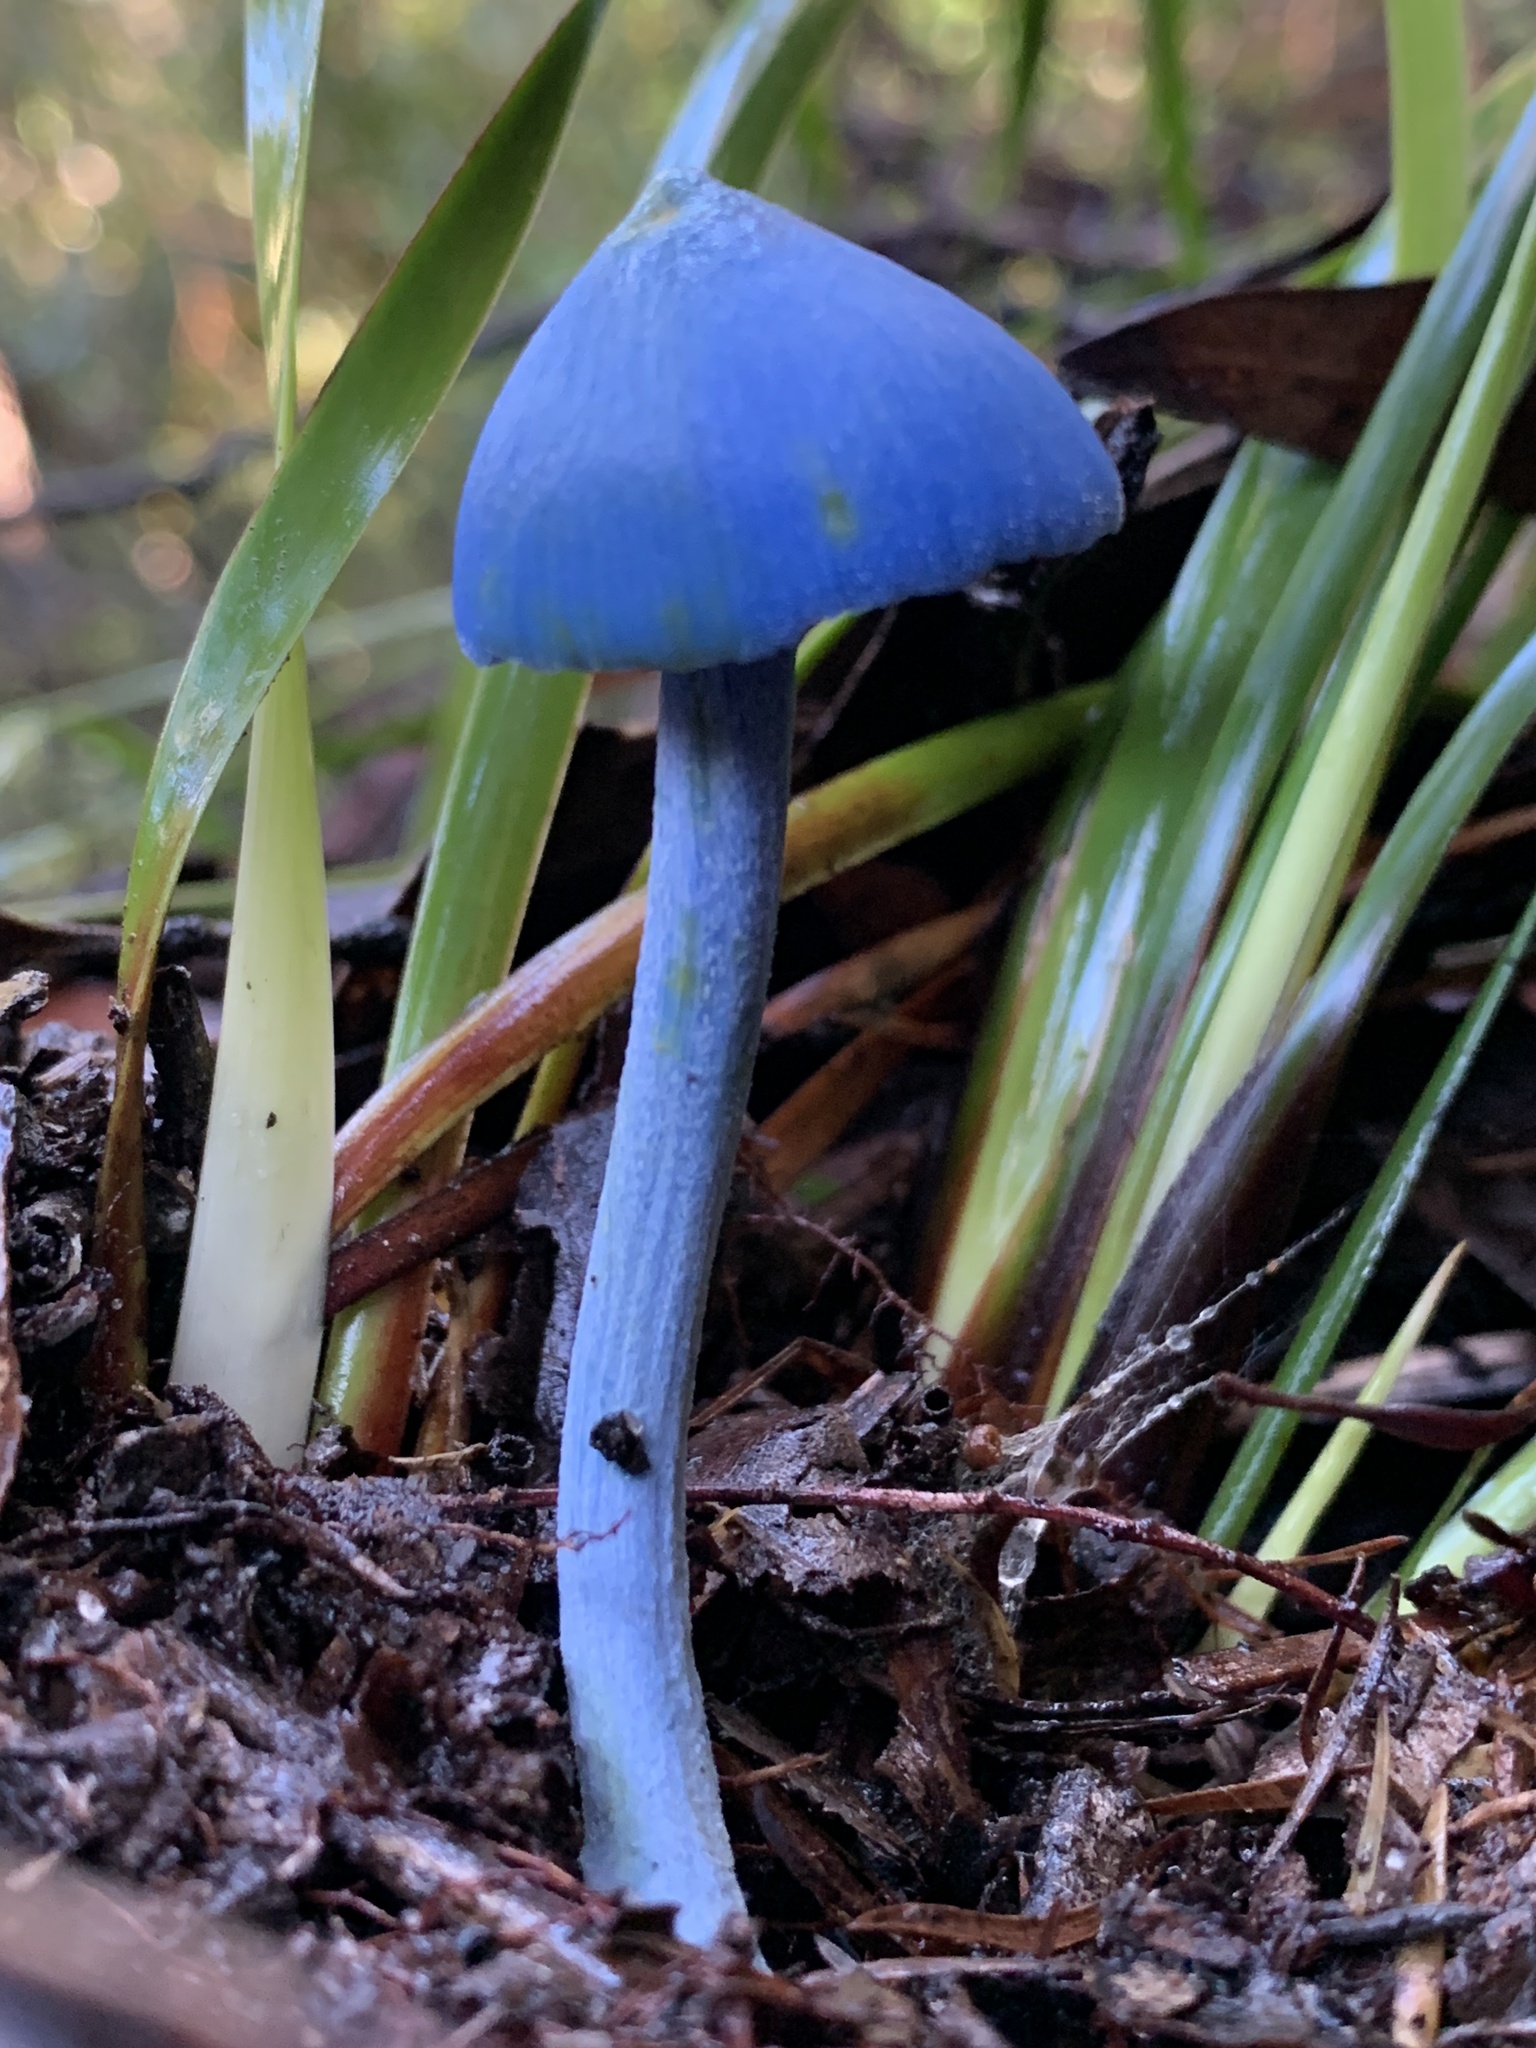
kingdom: Fungi
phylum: Basidiomycota
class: Agaricomycetes
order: Agaricales
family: Entolomataceae
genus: Entoloma
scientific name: Entoloma virescens
